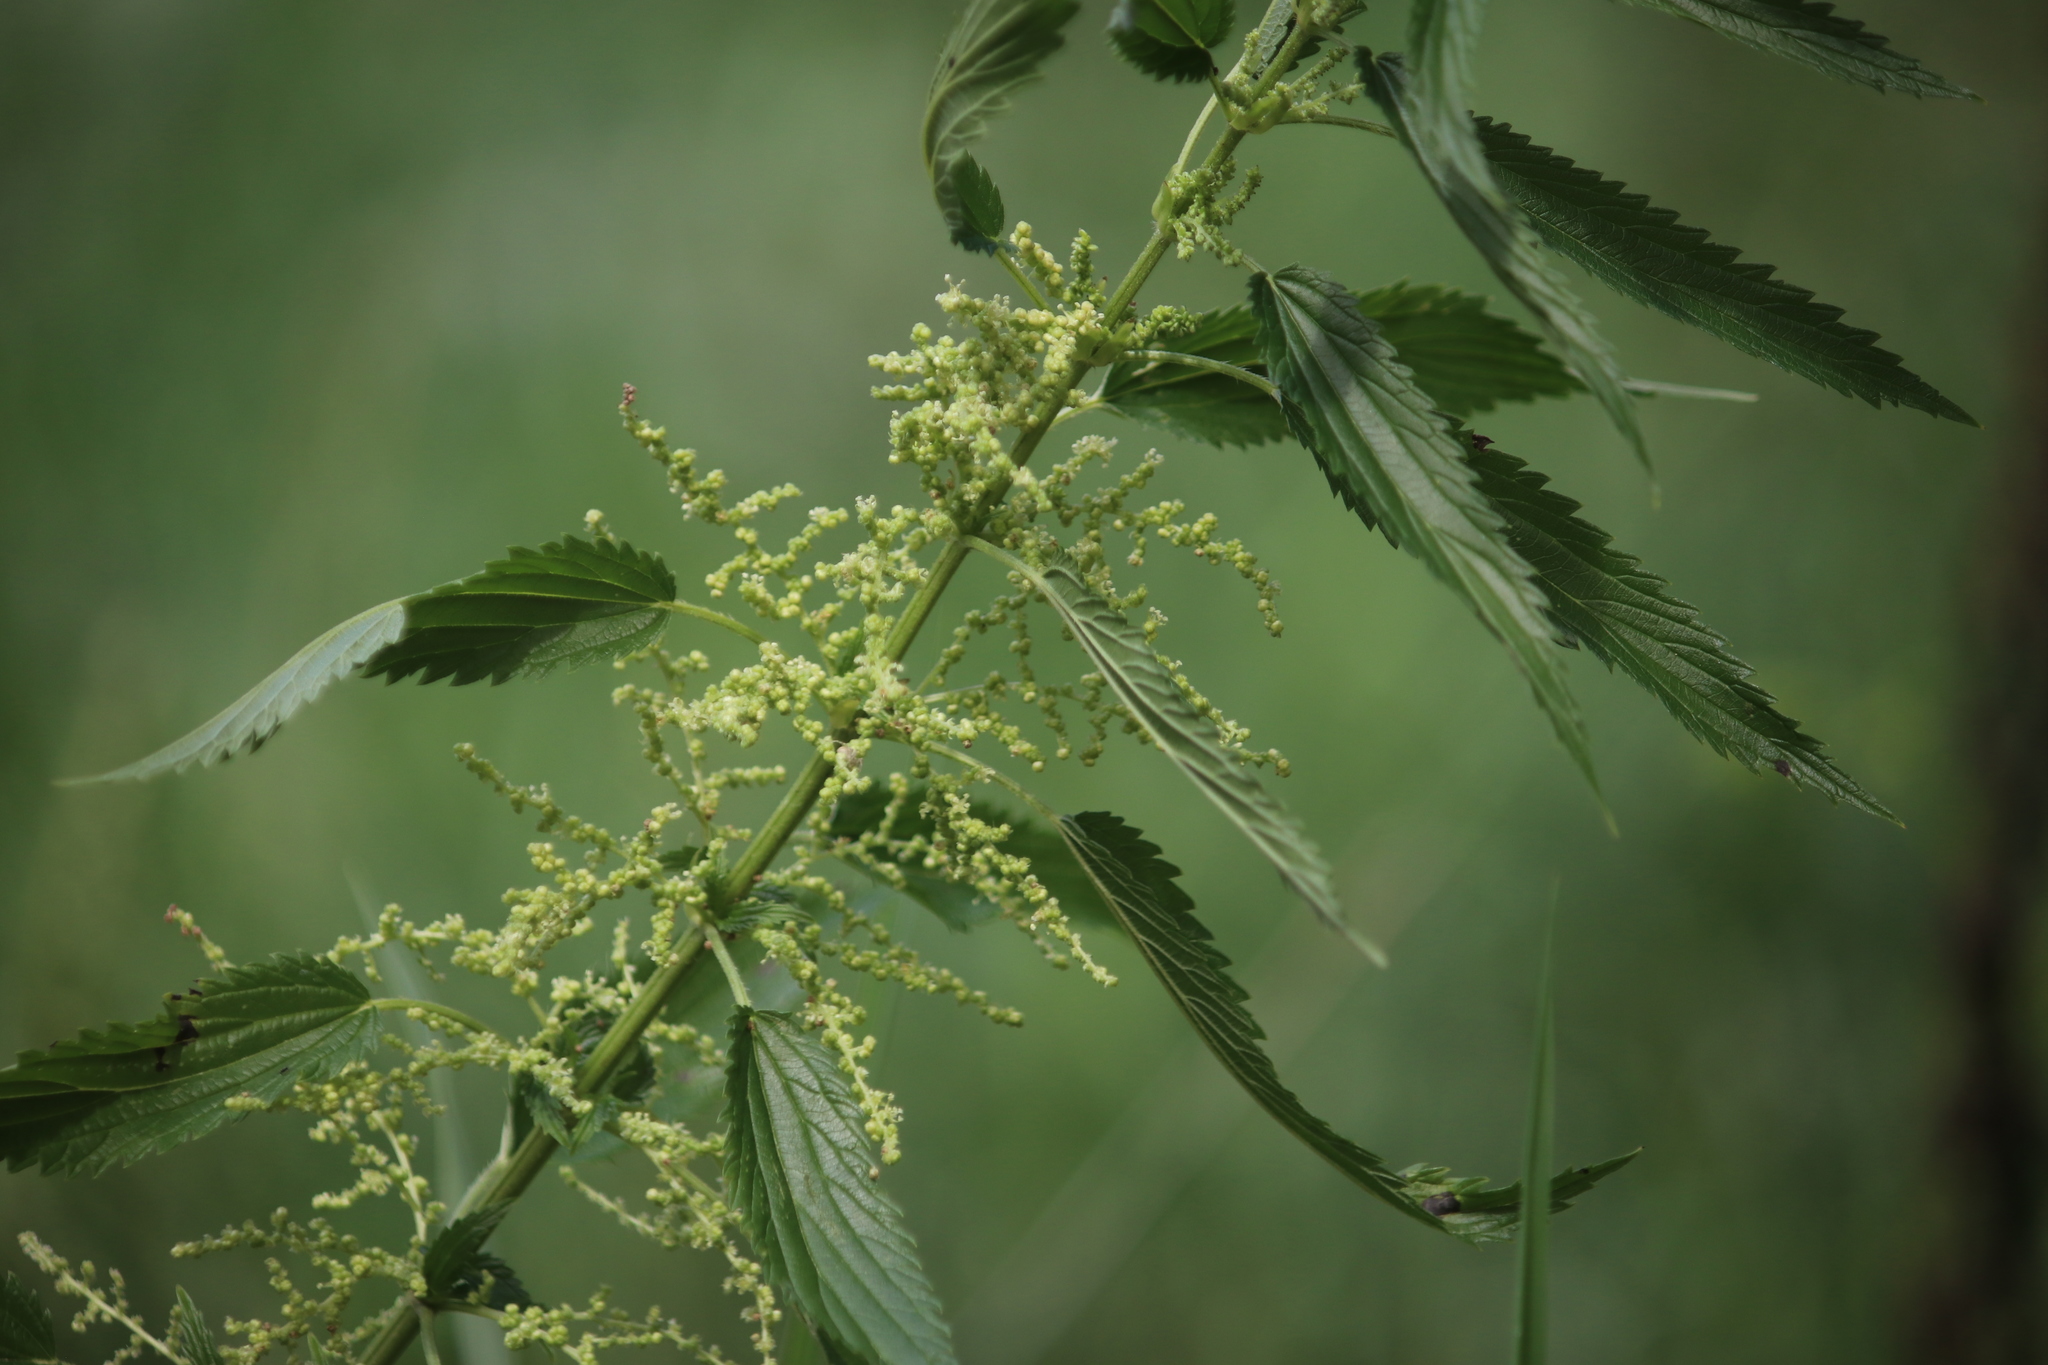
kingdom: Plantae
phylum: Tracheophyta
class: Magnoliopsida
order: Rosales
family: Urticaceae
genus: Urtica
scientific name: Urtica gracilis
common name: Slender stinging nettle
